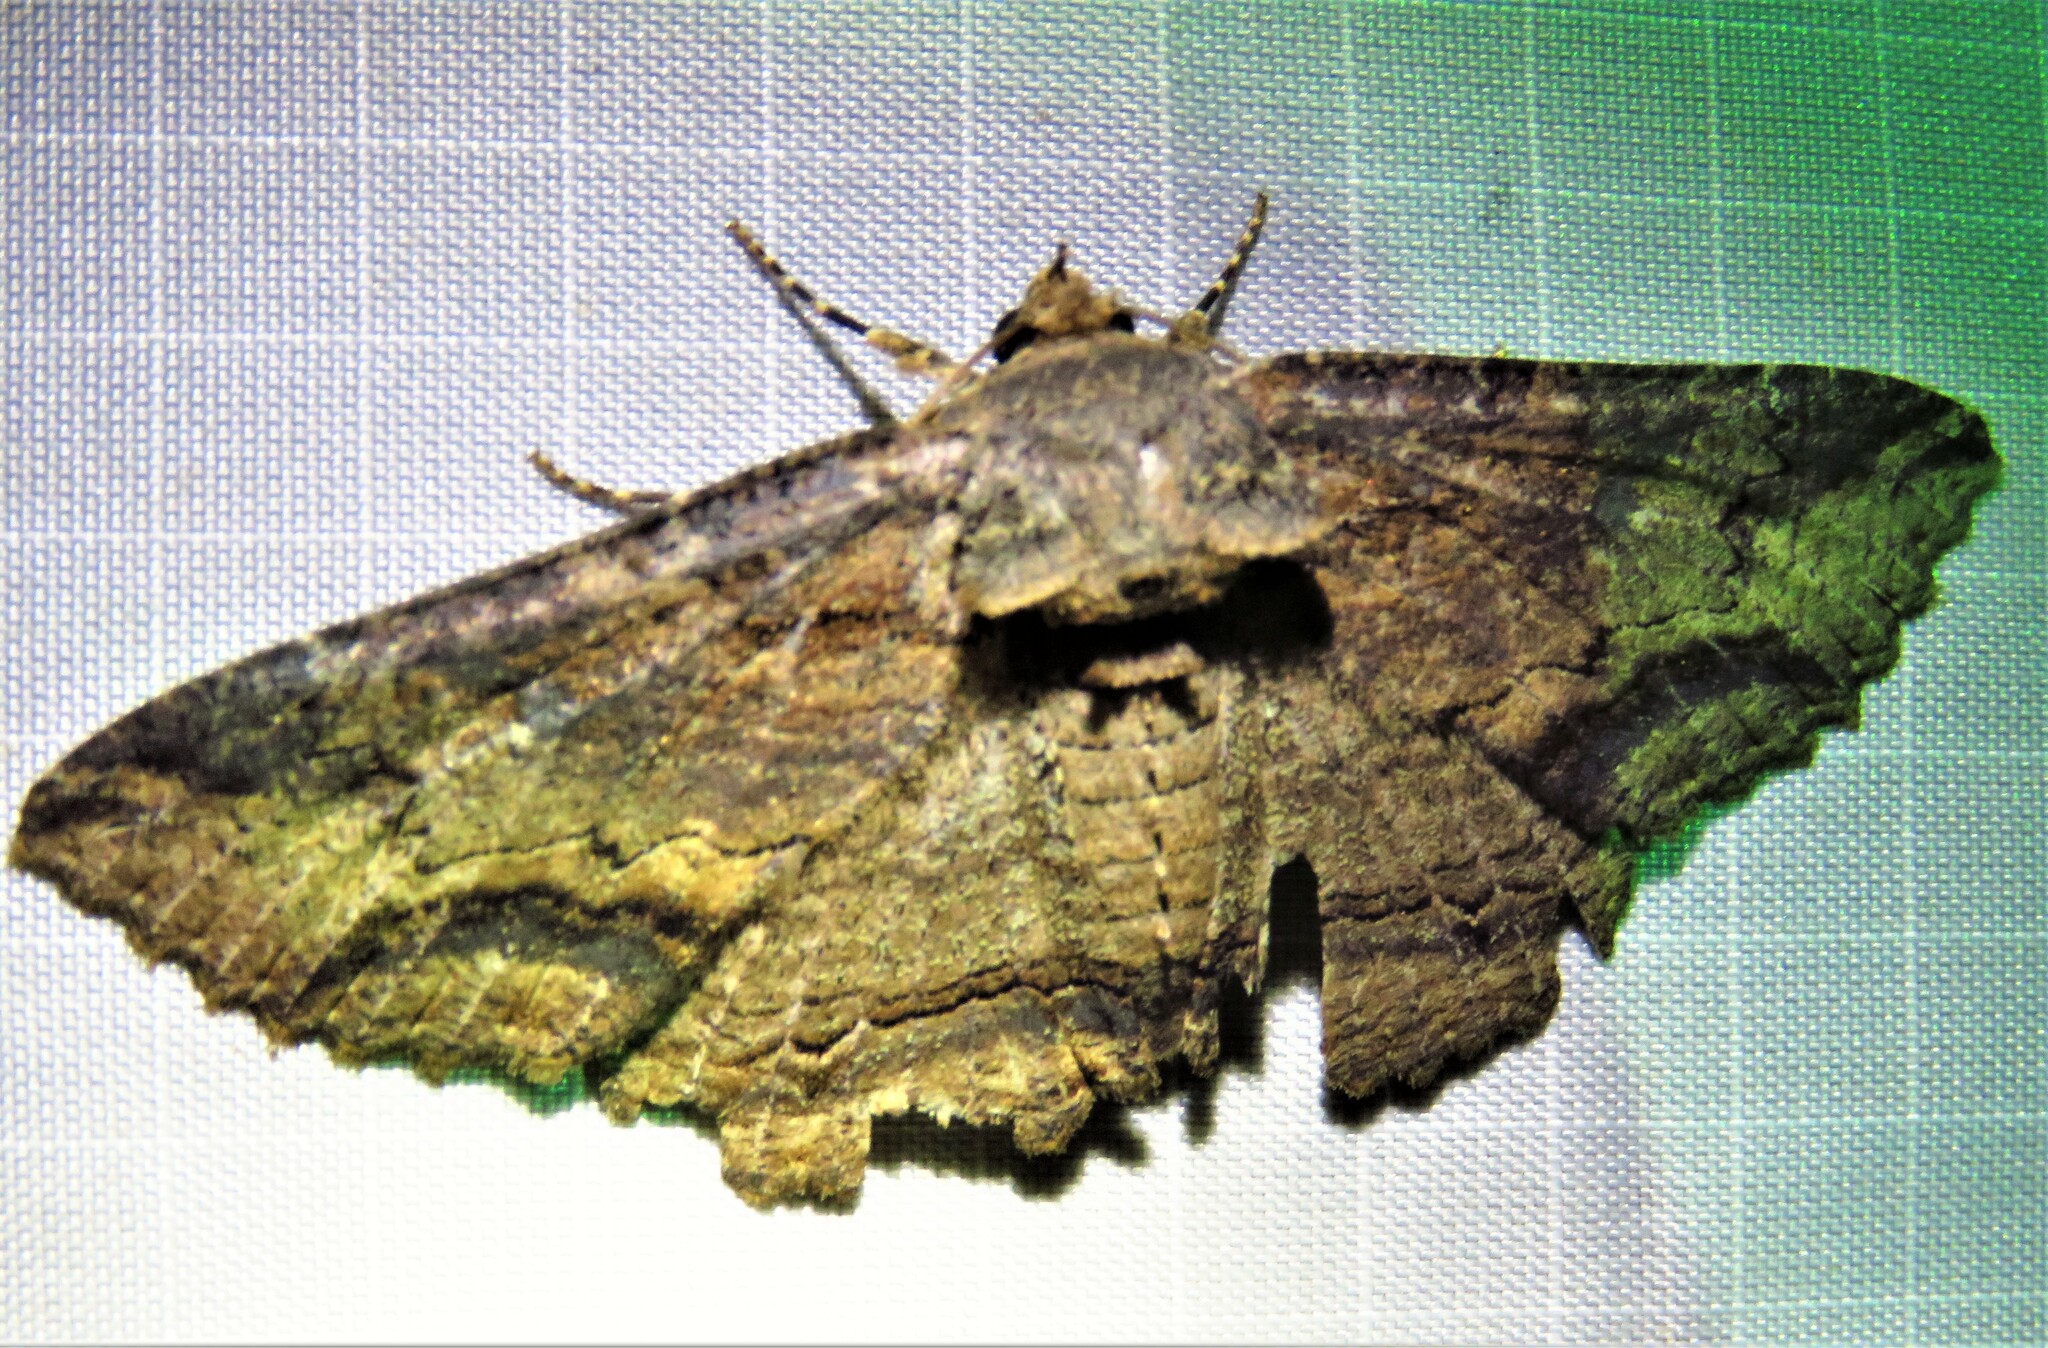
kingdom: Animalia
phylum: Arthropoda
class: Insecta
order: Lepidoptera
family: Erebidae
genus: Zale
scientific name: Zale lunata
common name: Lunate zale moth
